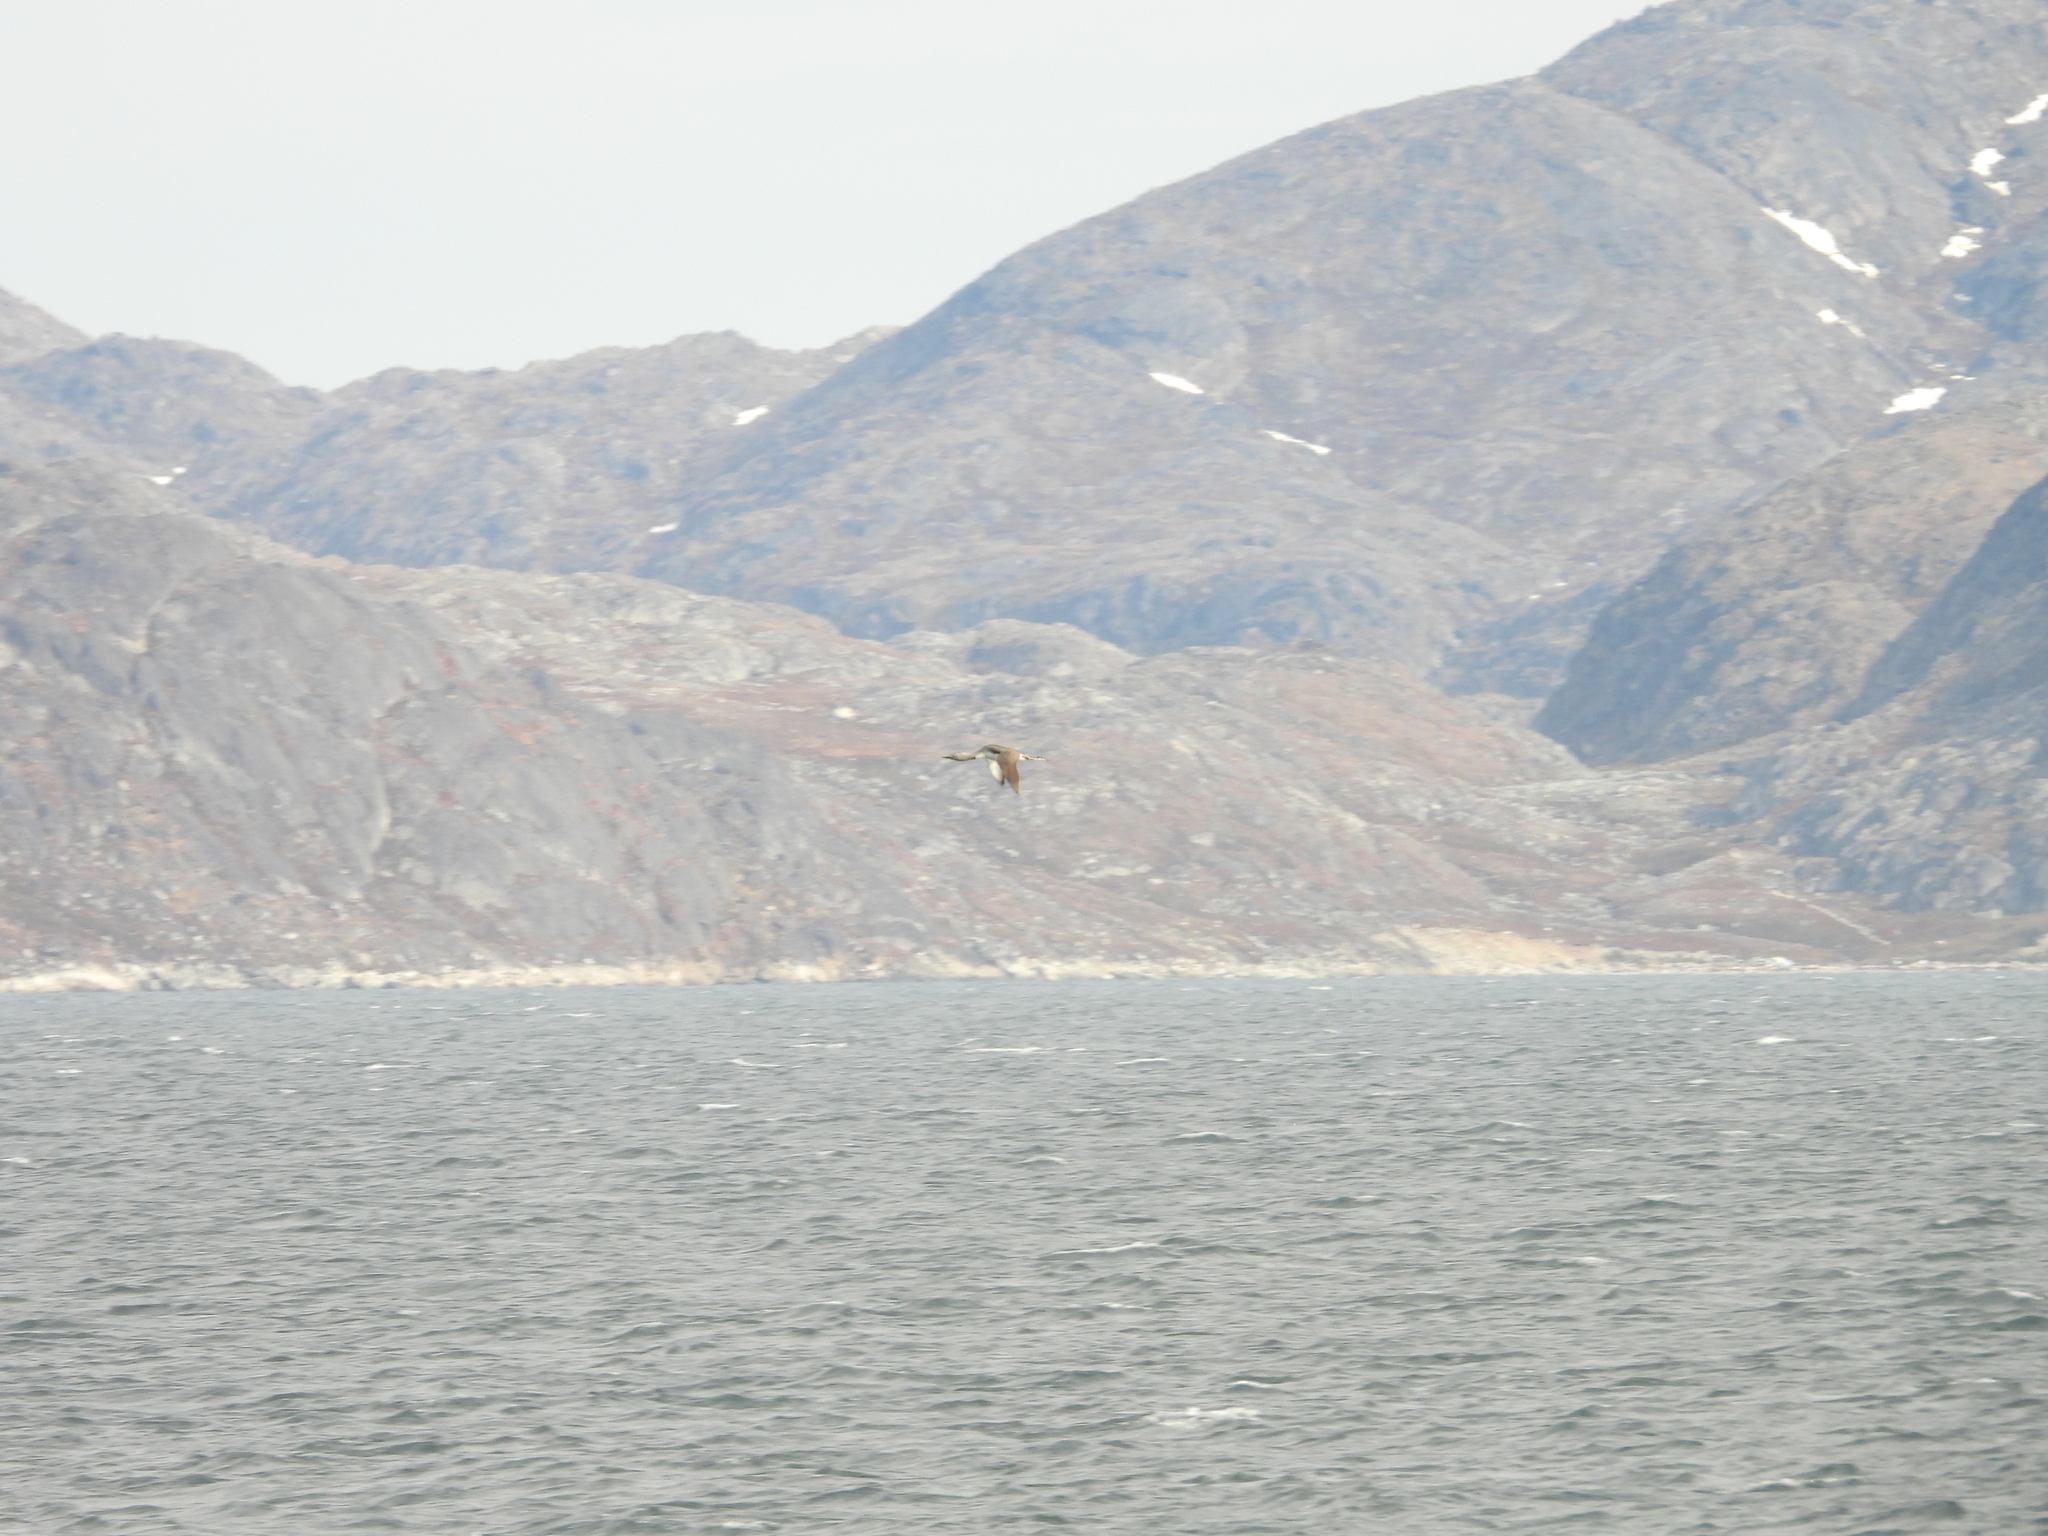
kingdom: Animalia
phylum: Chordata
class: Aves
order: Gaviiformes
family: Gaviidae
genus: Gavia
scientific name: Gavia stellata
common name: Red-throated loon
